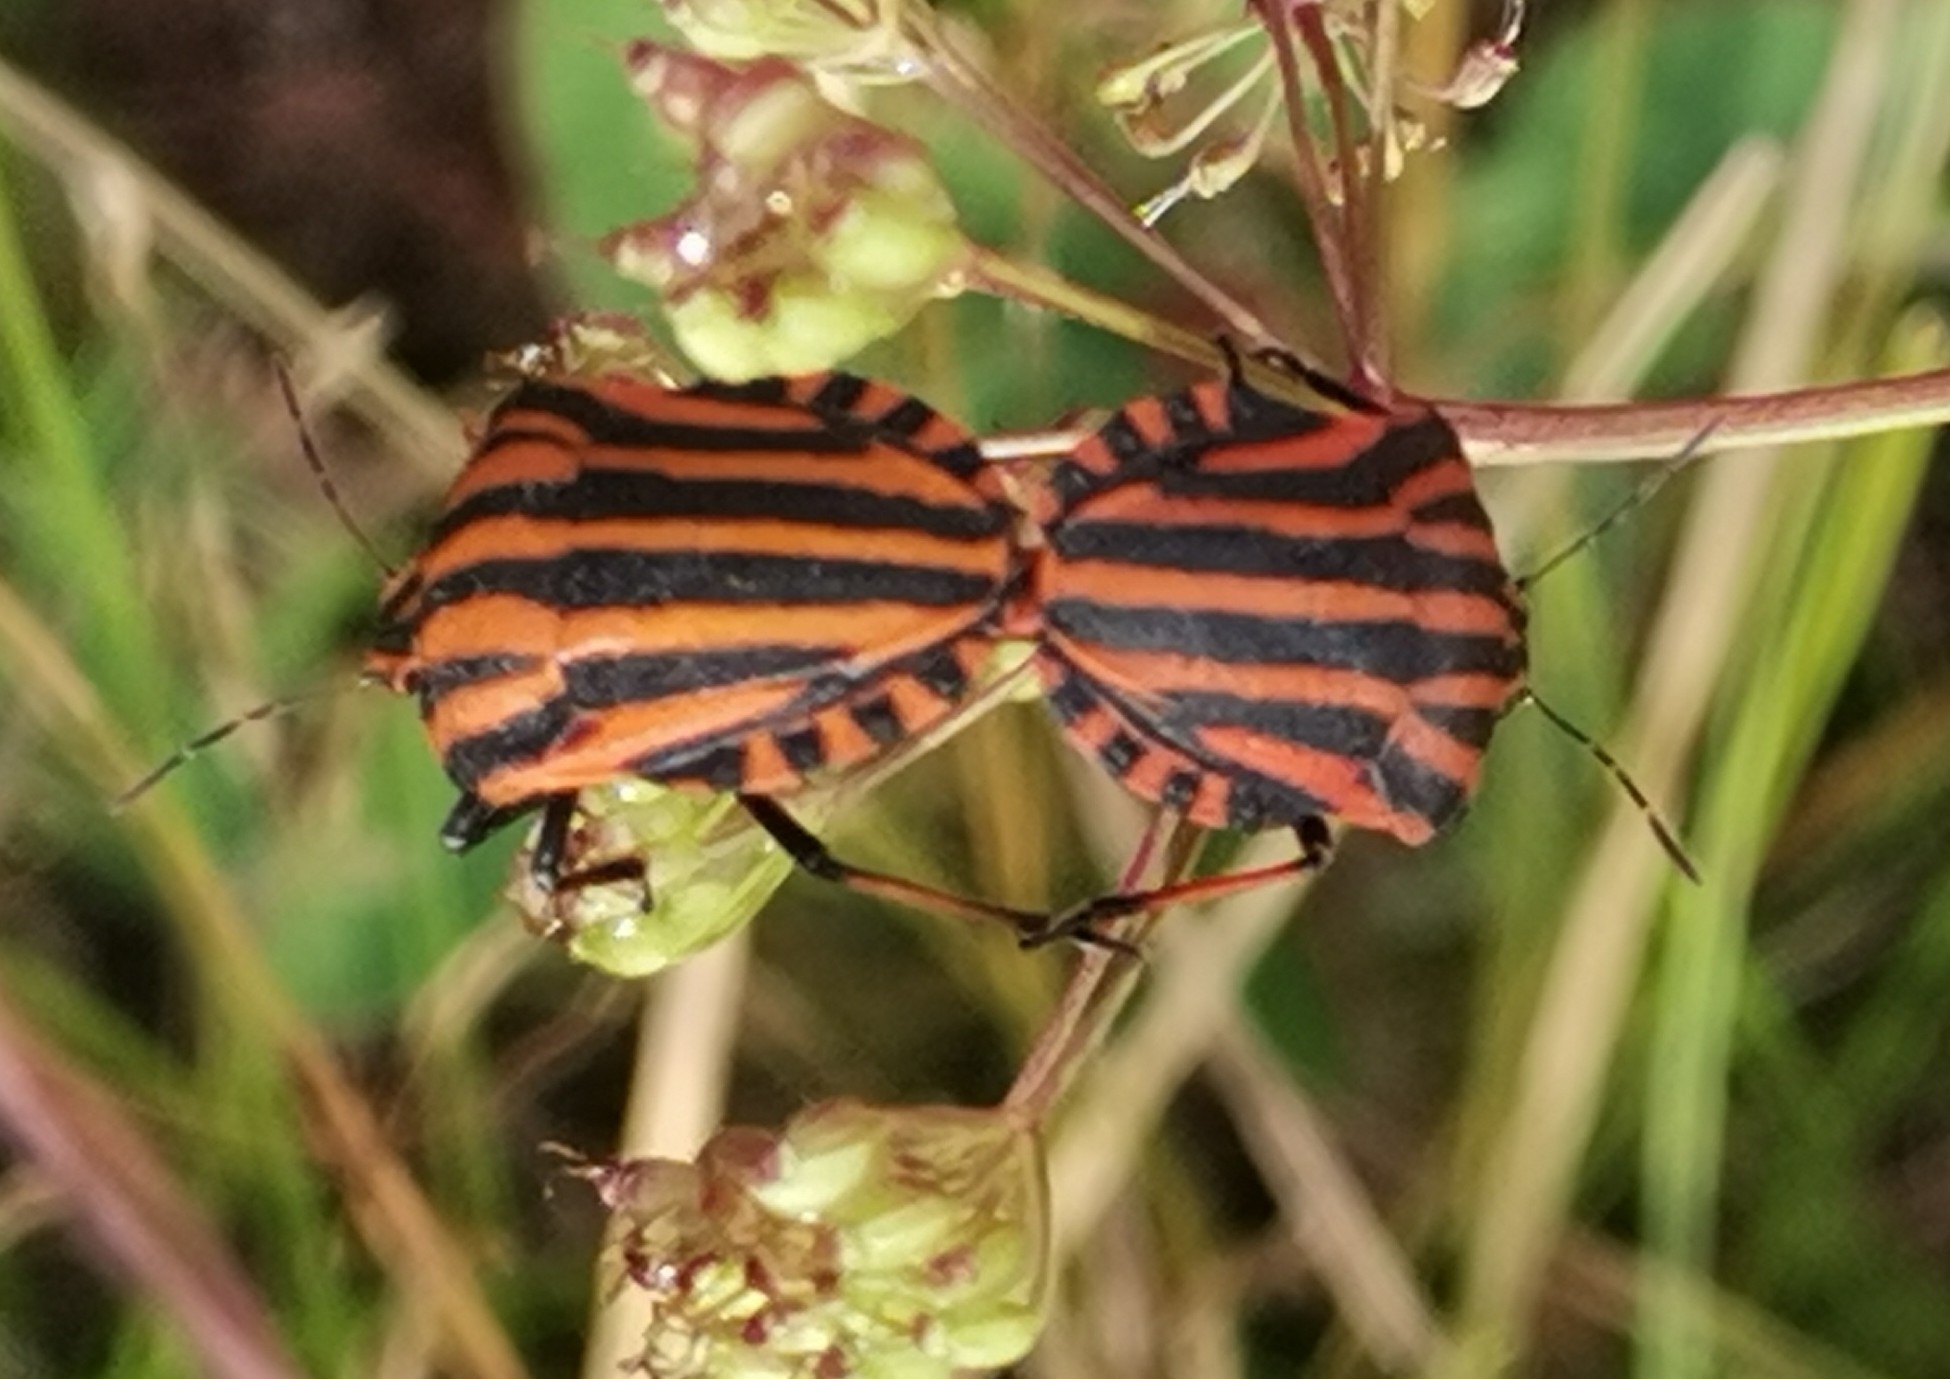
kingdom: Animalia
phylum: Arthropoda
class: Insecta
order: Hemiptera
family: Pentatomidae
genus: Graphosoma
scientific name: Graphosoma italicum
